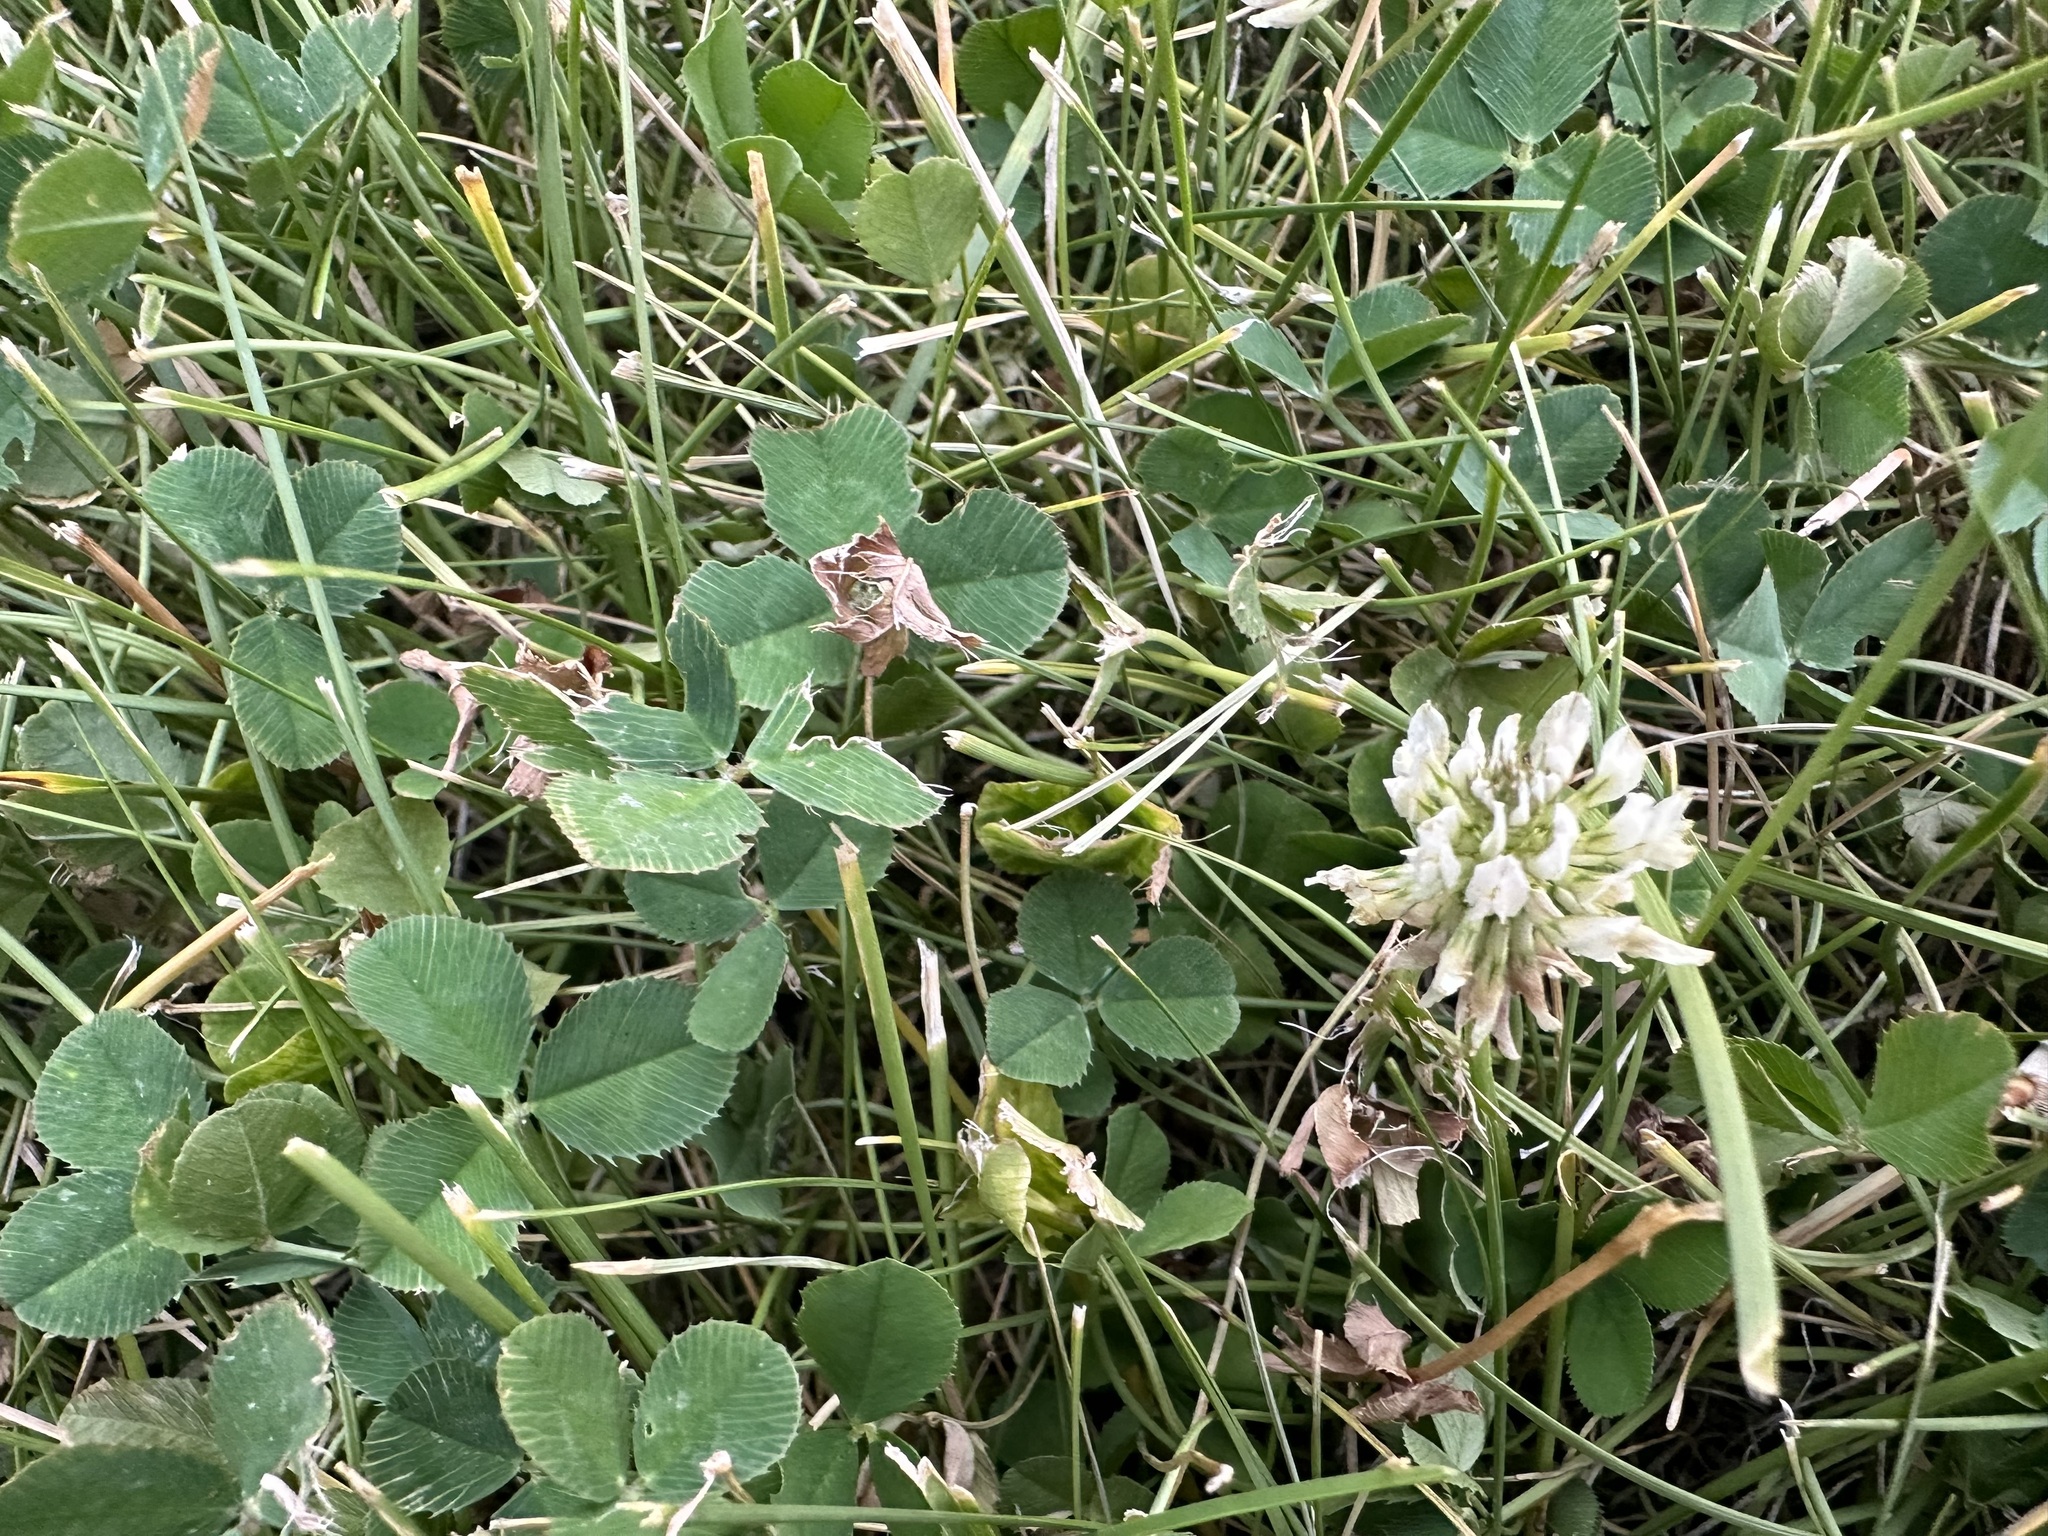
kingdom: Plantae
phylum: Tracheophyta
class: Magnoliopsida
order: Fabales
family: Fabaceae
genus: Trifolium
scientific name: Trifolium repens
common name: White clover
